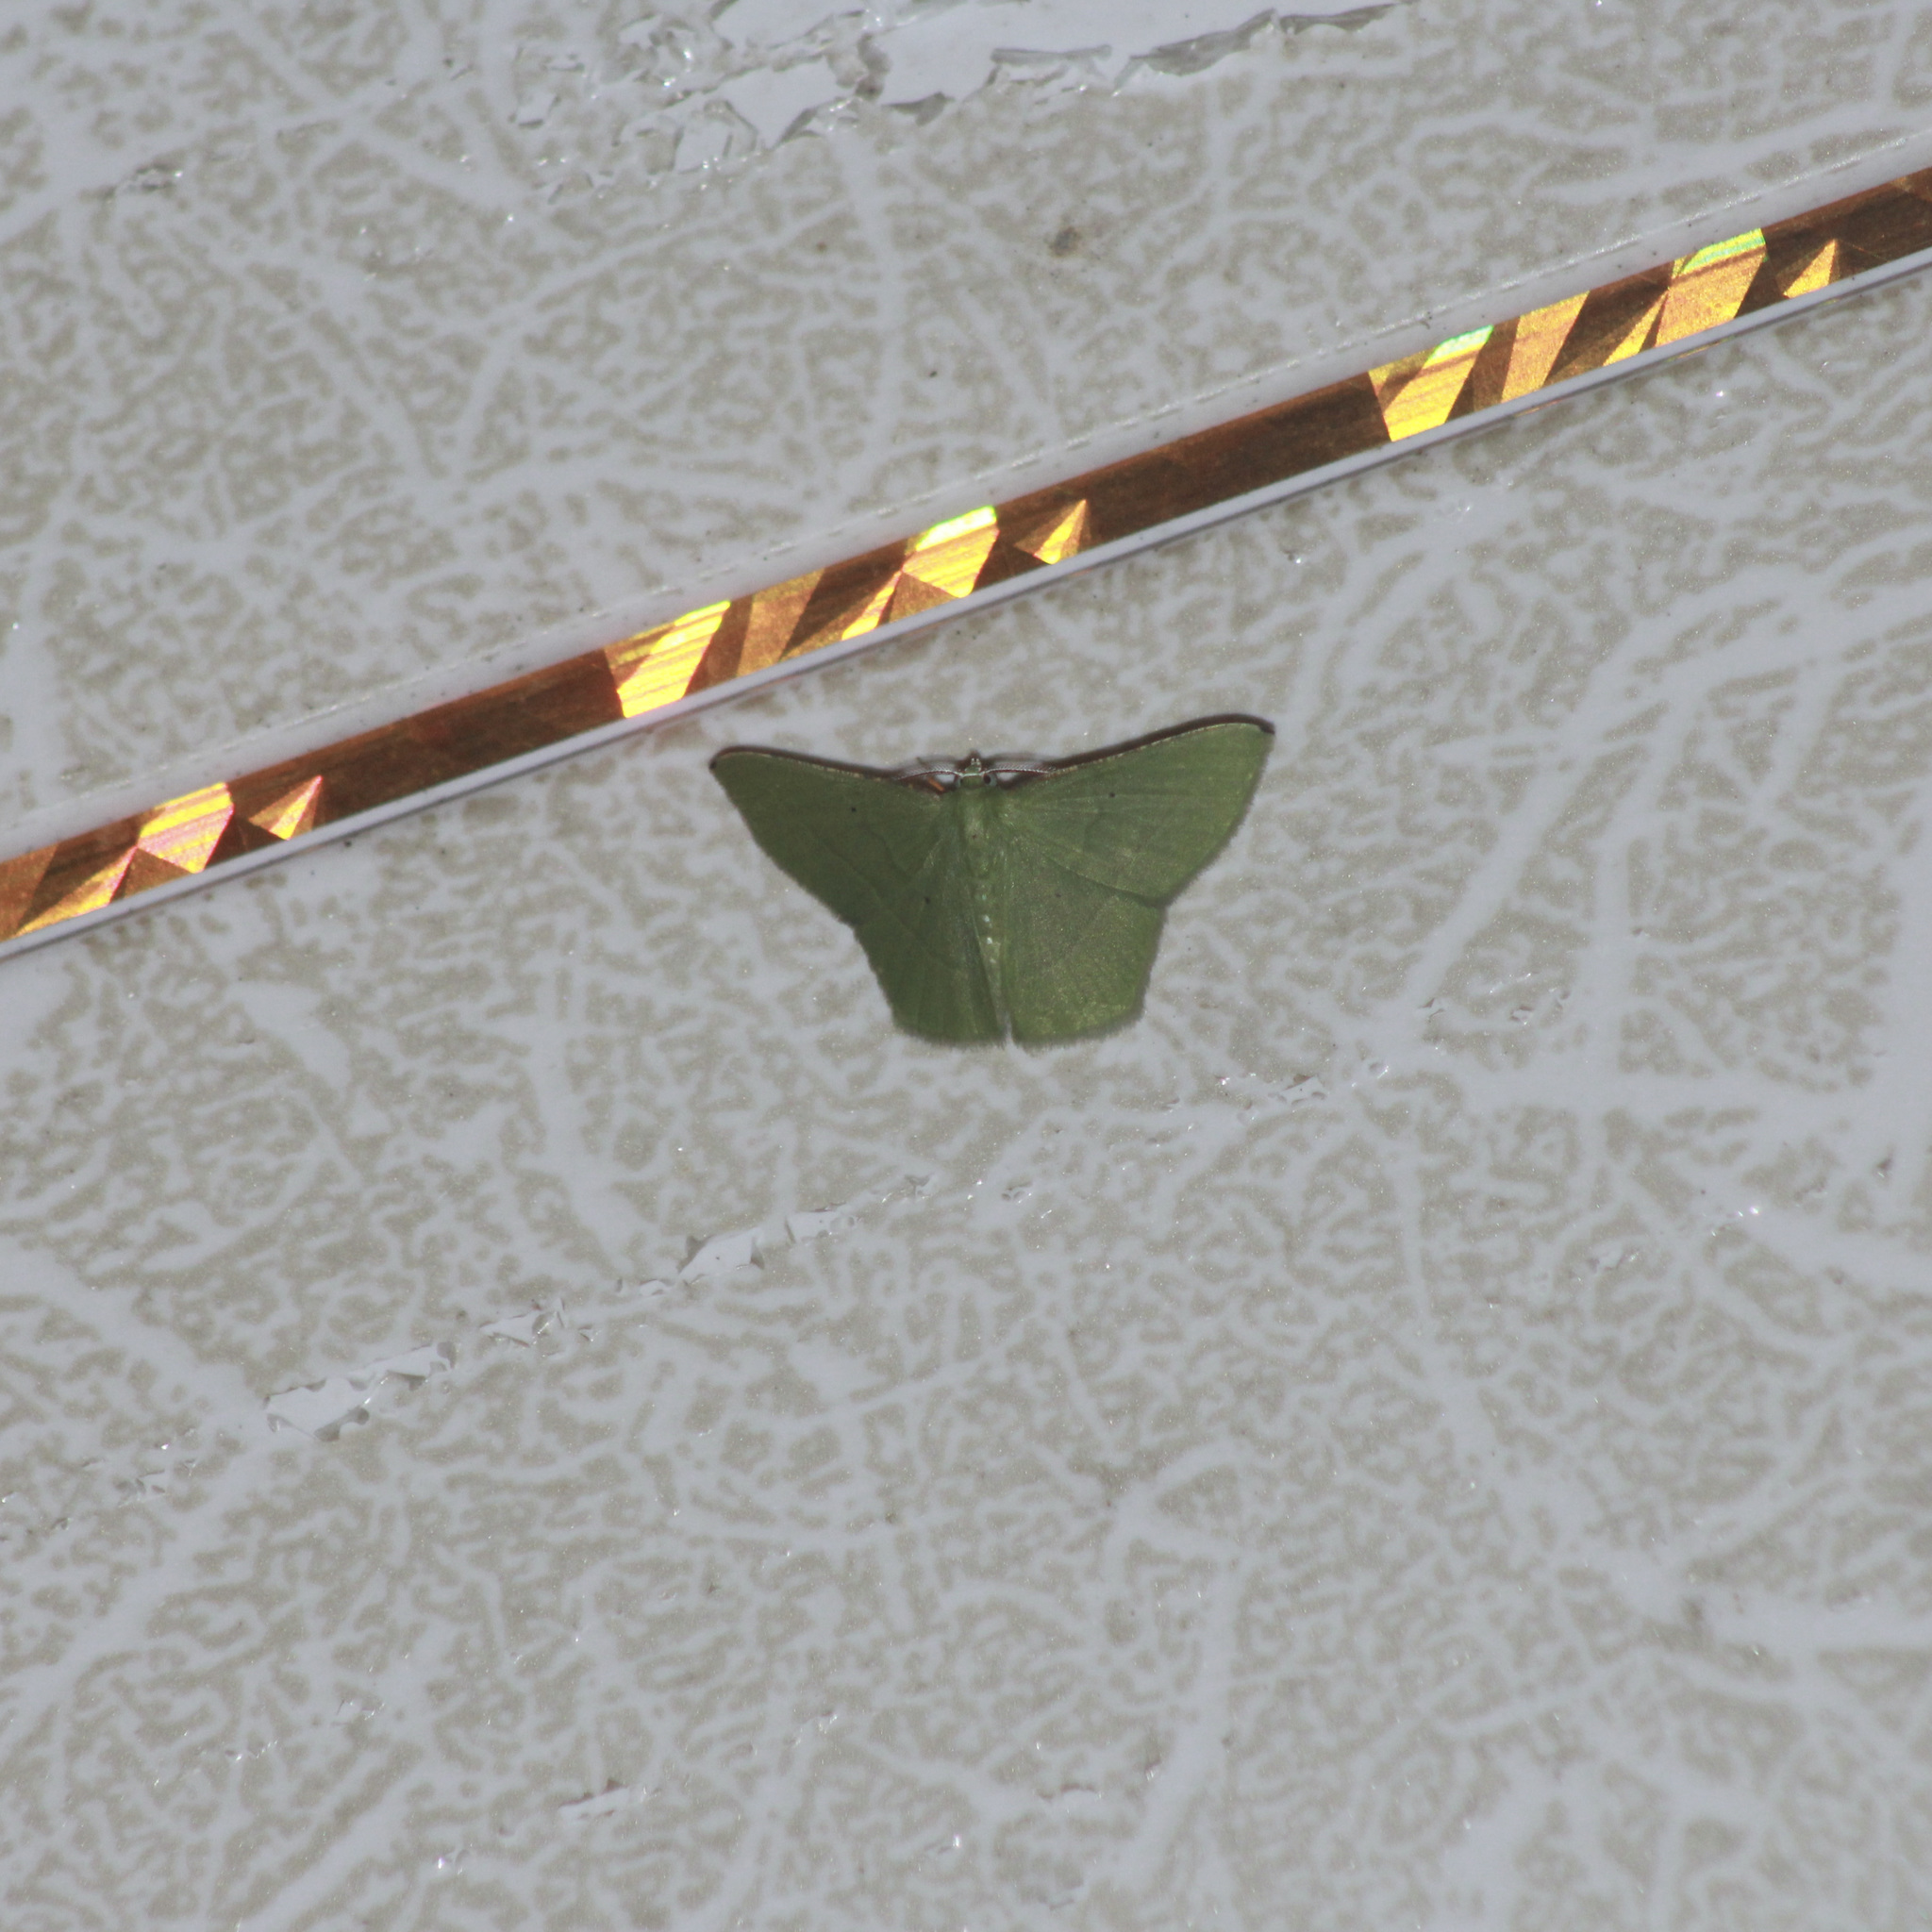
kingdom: Animalia
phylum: Arthropoda
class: Insecta
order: Lepidoptera
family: Geometridae
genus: Phrudocentra
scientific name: Phrudocentra pupillata
